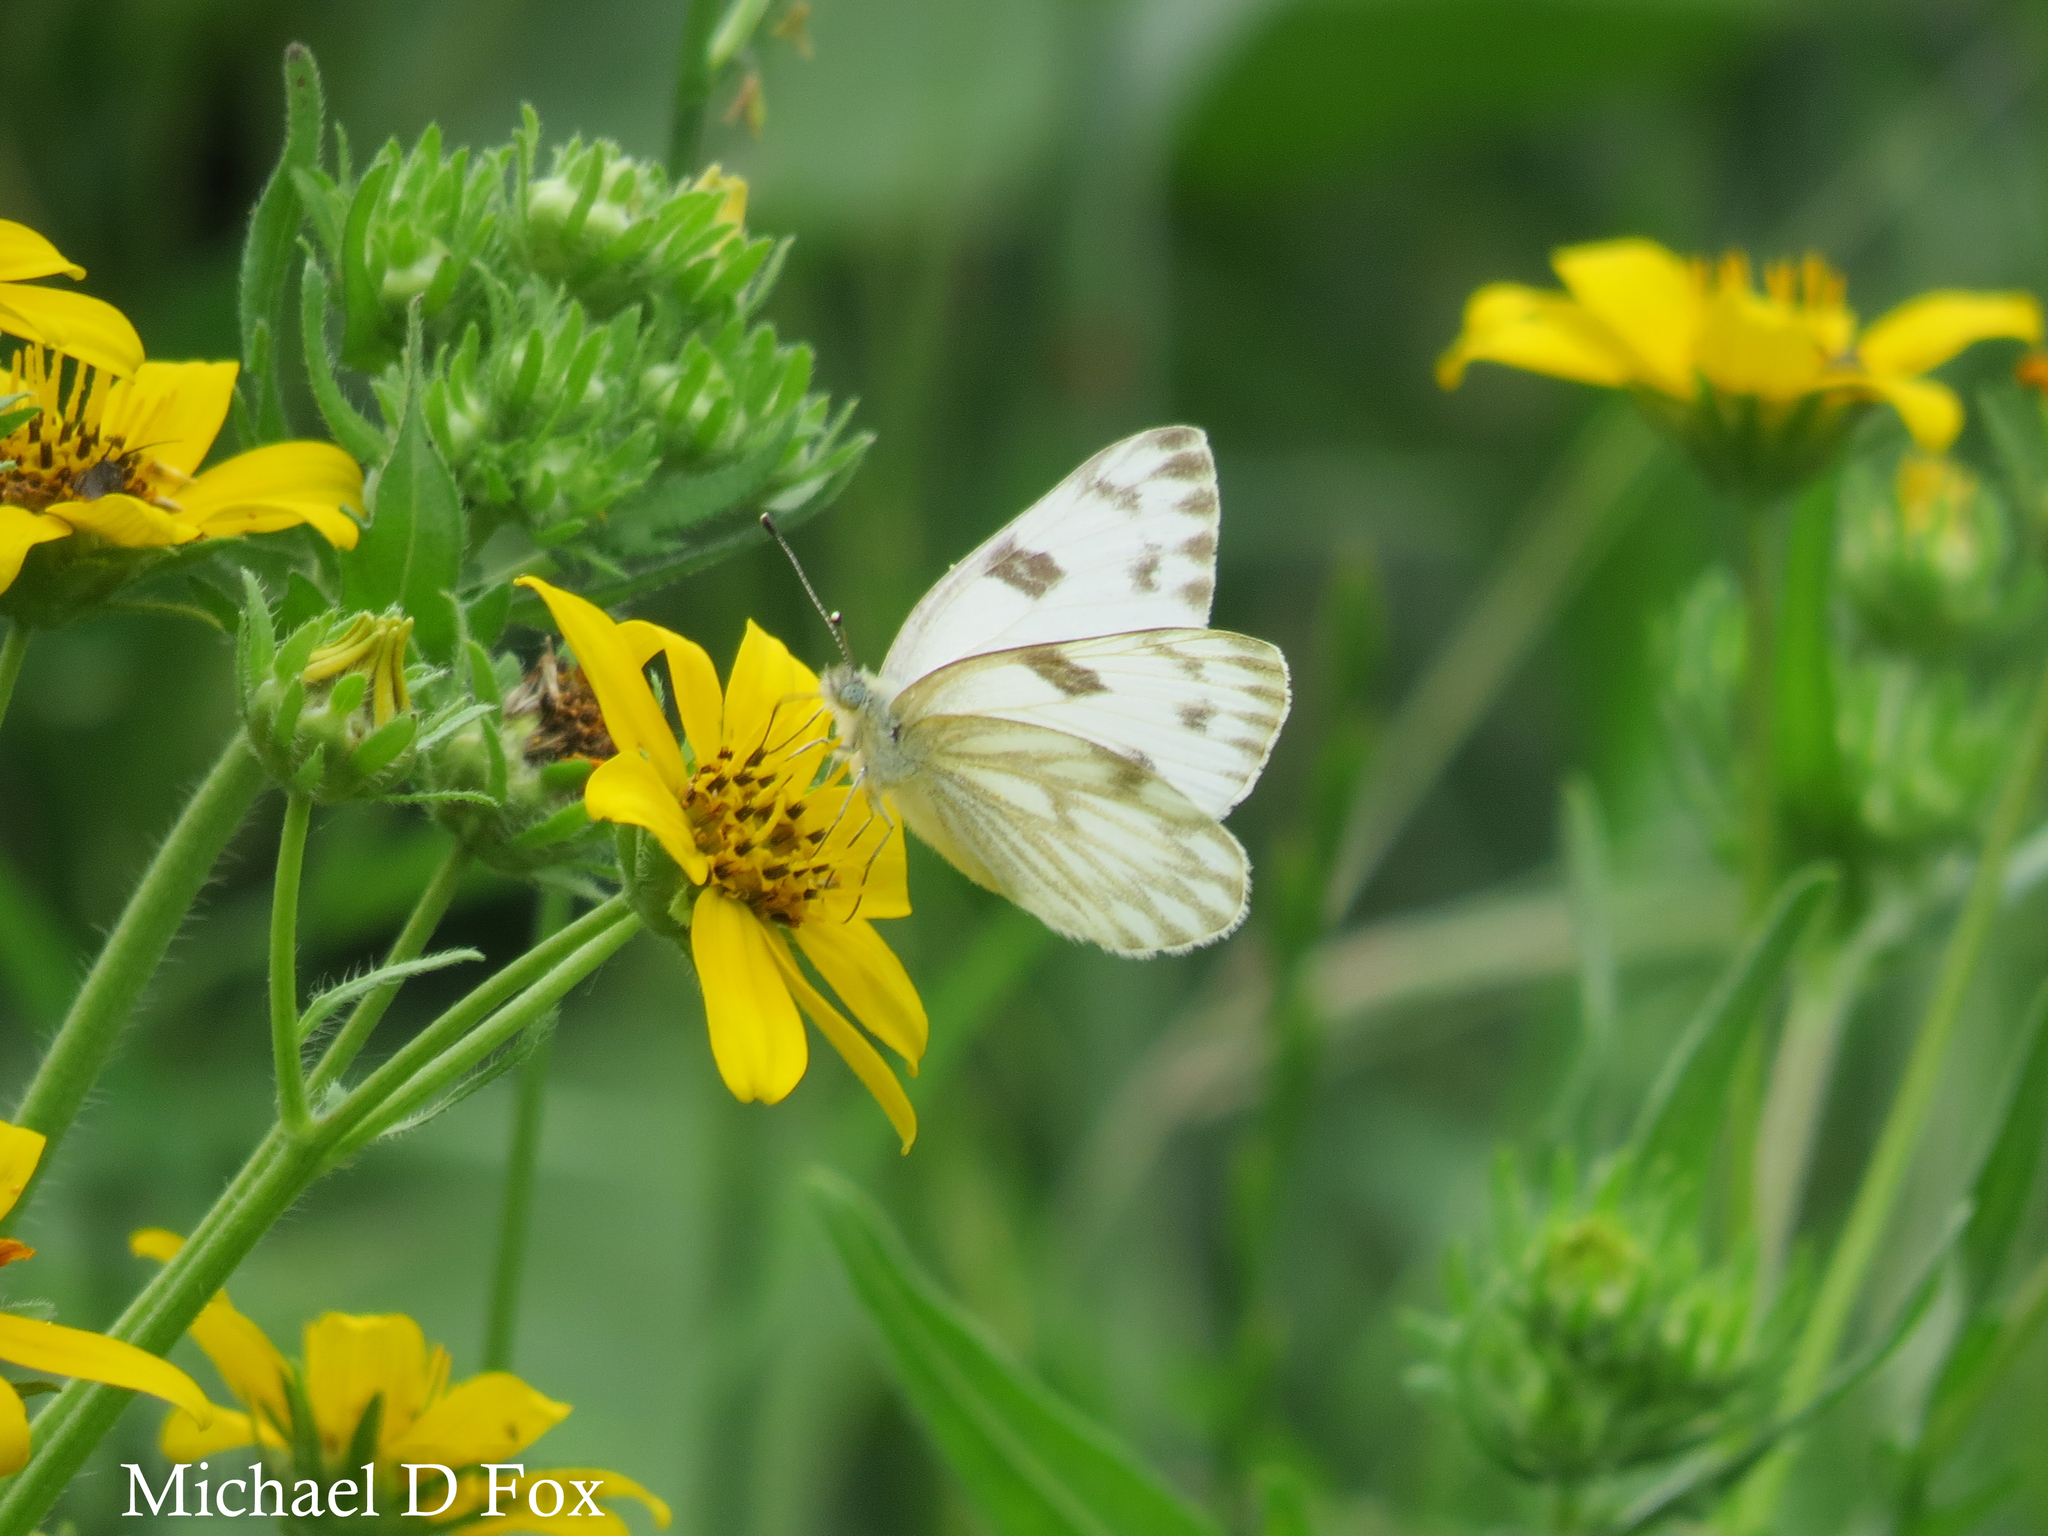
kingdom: Animalia
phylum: Arthropoda
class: Insecta
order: Lepidoptera
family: Pieridae
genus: Pontia
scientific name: Pontia protodice
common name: Checkered white
